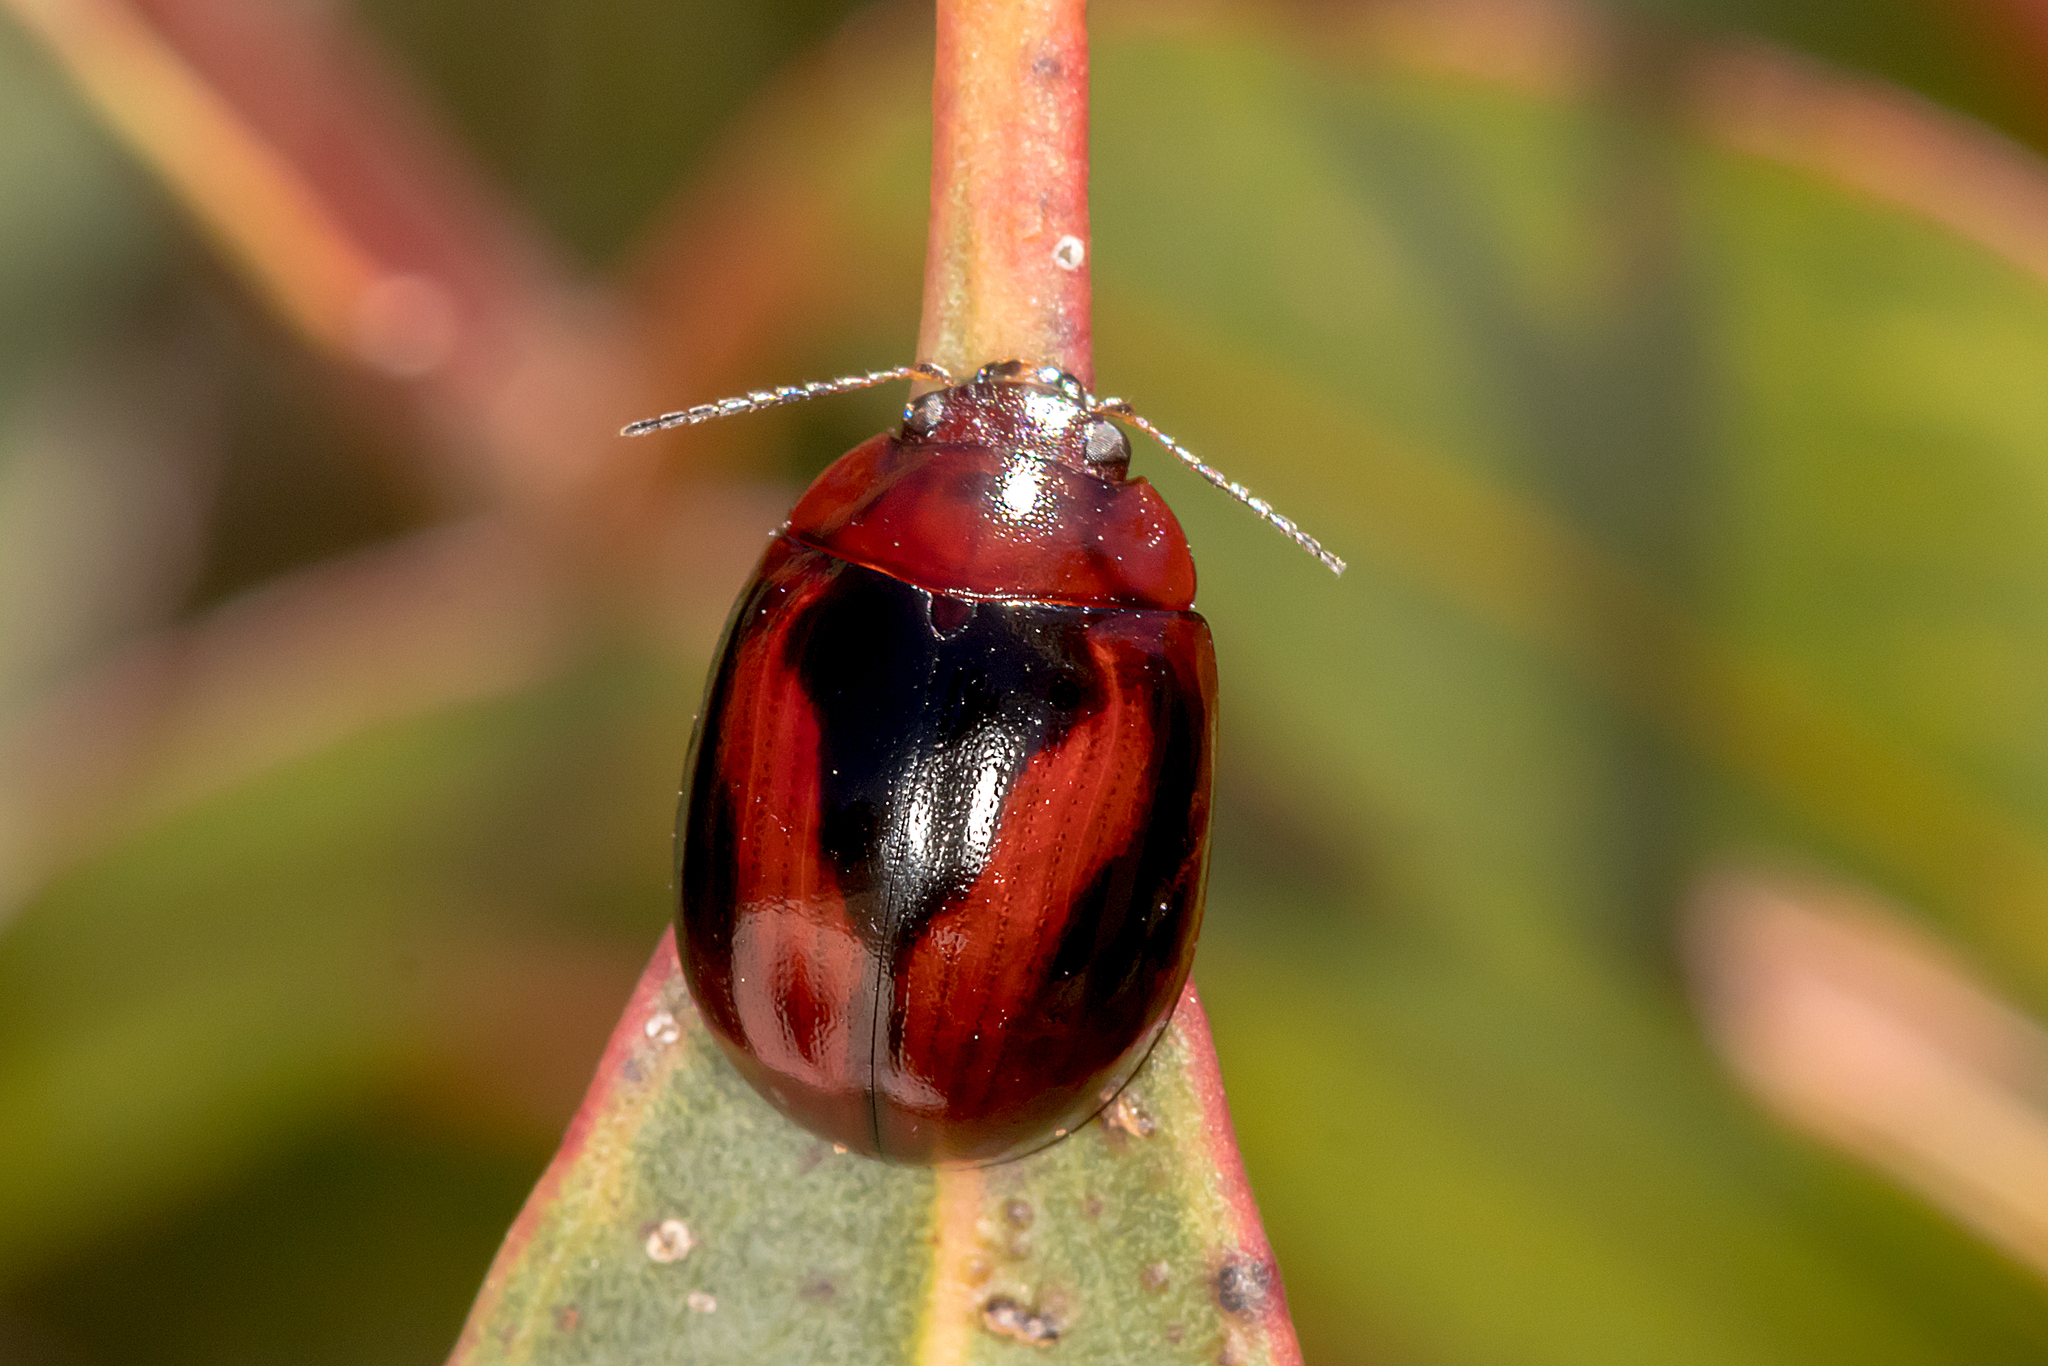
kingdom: Animalia
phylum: Arthropoda
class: Insecta
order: Coleoptera
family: Chrysomelidae
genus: Paropsisterna
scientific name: Paropsisterna
